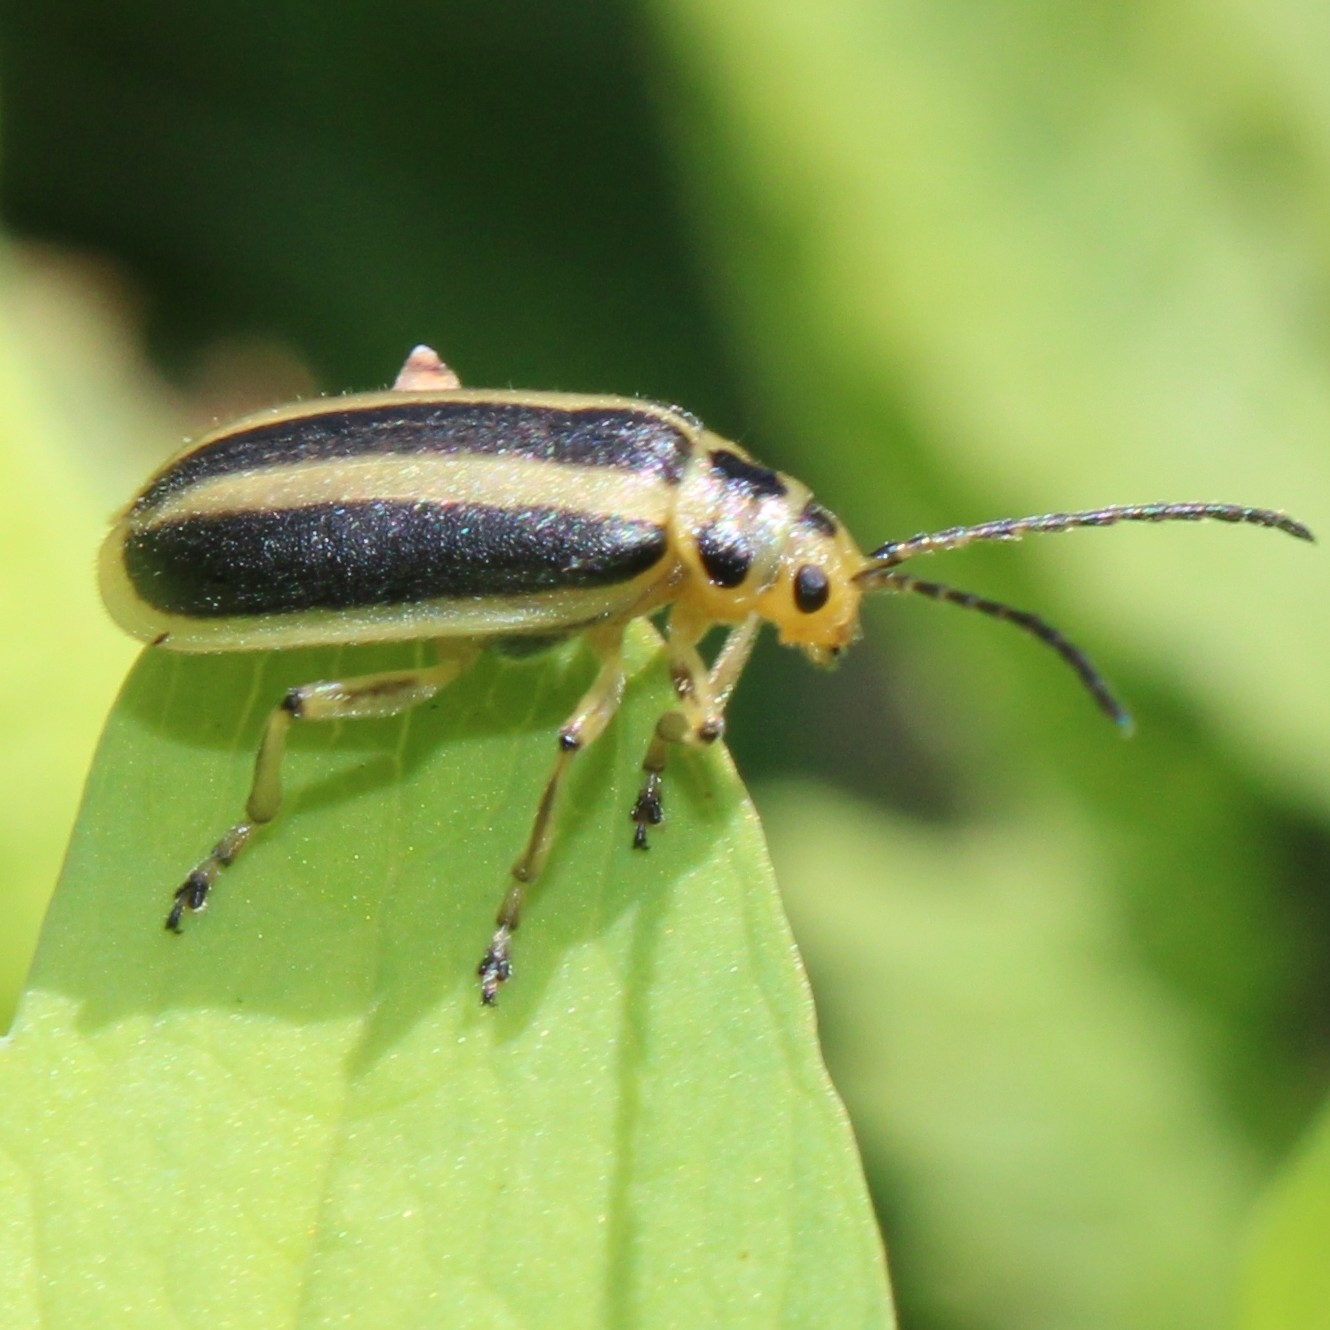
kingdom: Animalia
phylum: Arthropoda
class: Insecta
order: Coleoptera
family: Chrysomelidae
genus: Trirhabda
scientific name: Trirhabda canadensis
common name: Goldenrod leaf beetle
